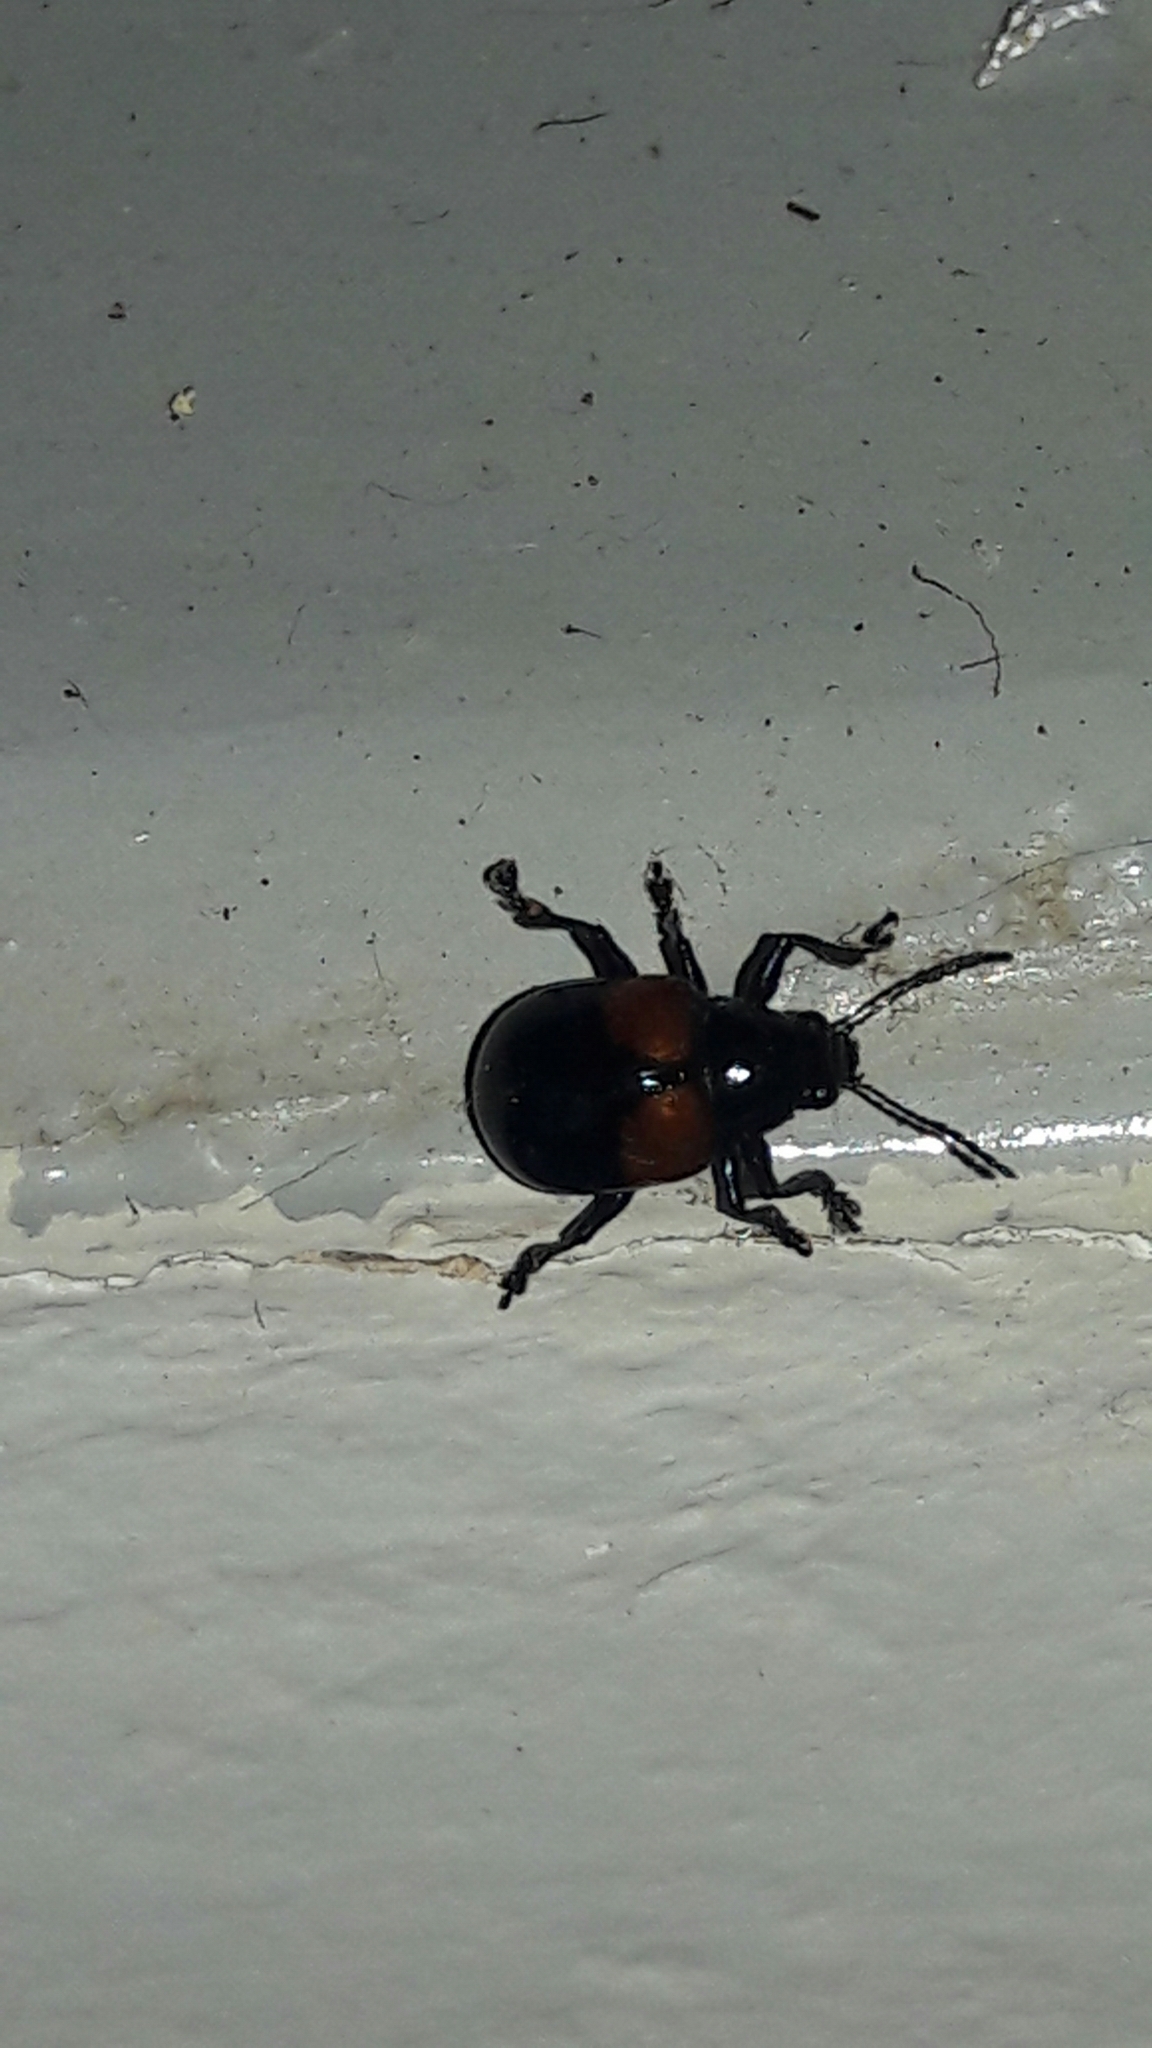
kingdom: Animalia
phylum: Arthropoda
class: Insecta
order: Coleoptera
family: Chrysomelidae
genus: Typophorus
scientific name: Typophorus nigritus
